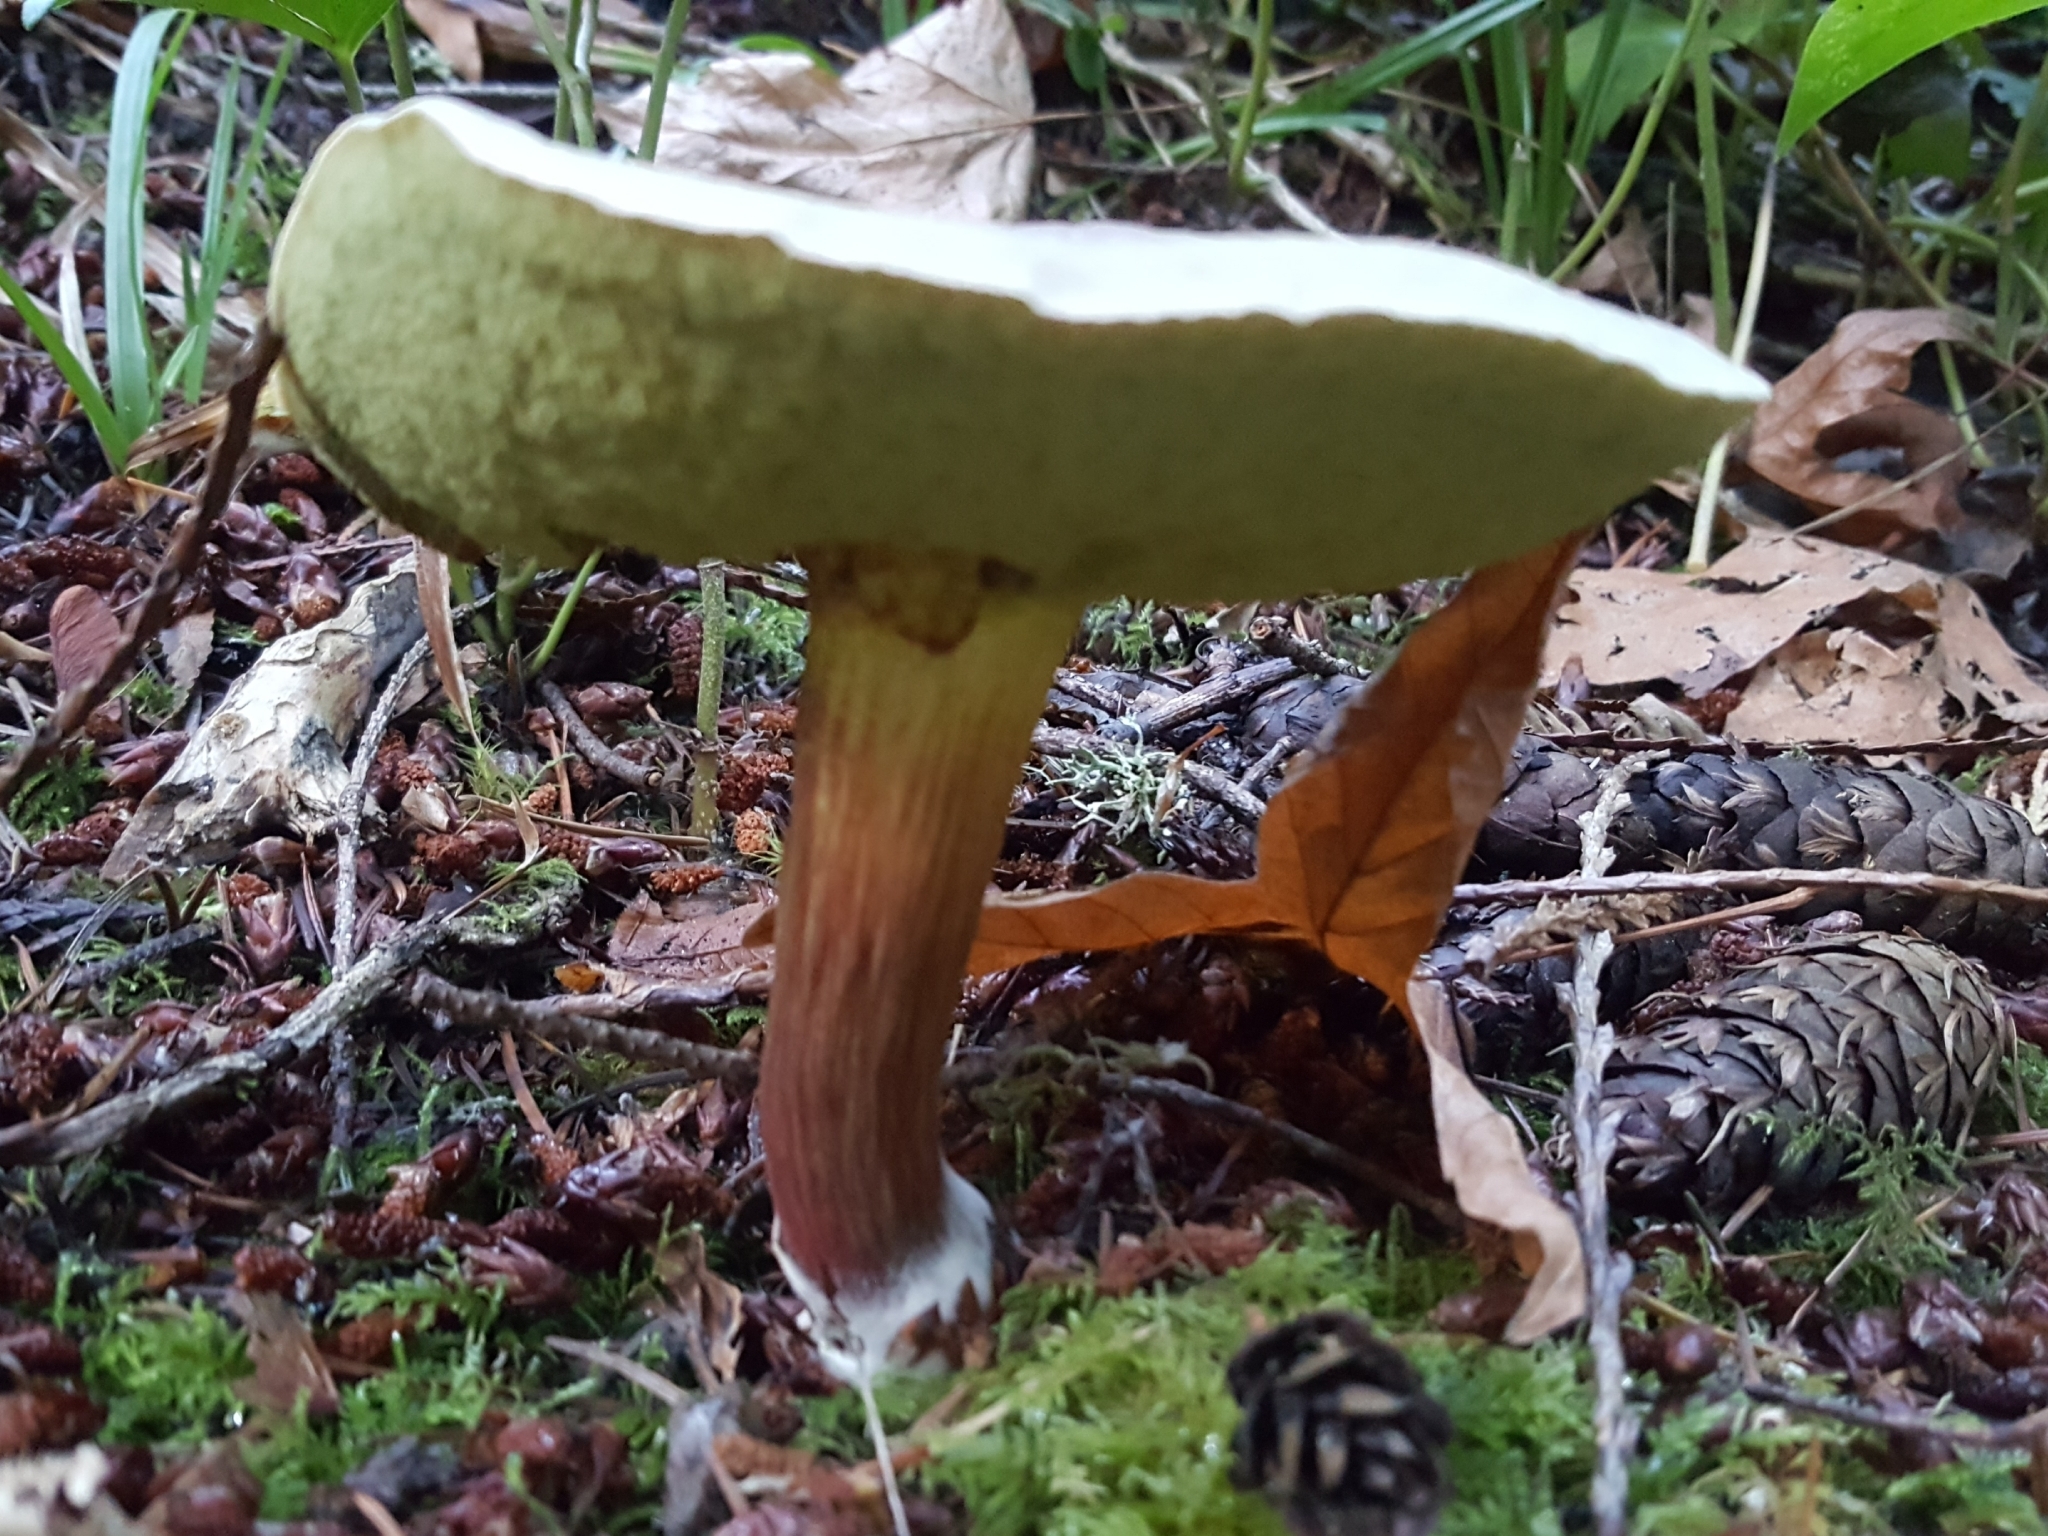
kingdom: Fungi
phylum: Basidiomycota
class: Agaricomycetes
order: Boletales
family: Boletaceae
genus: Xerocomellus
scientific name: Xerocomellus diffractus
